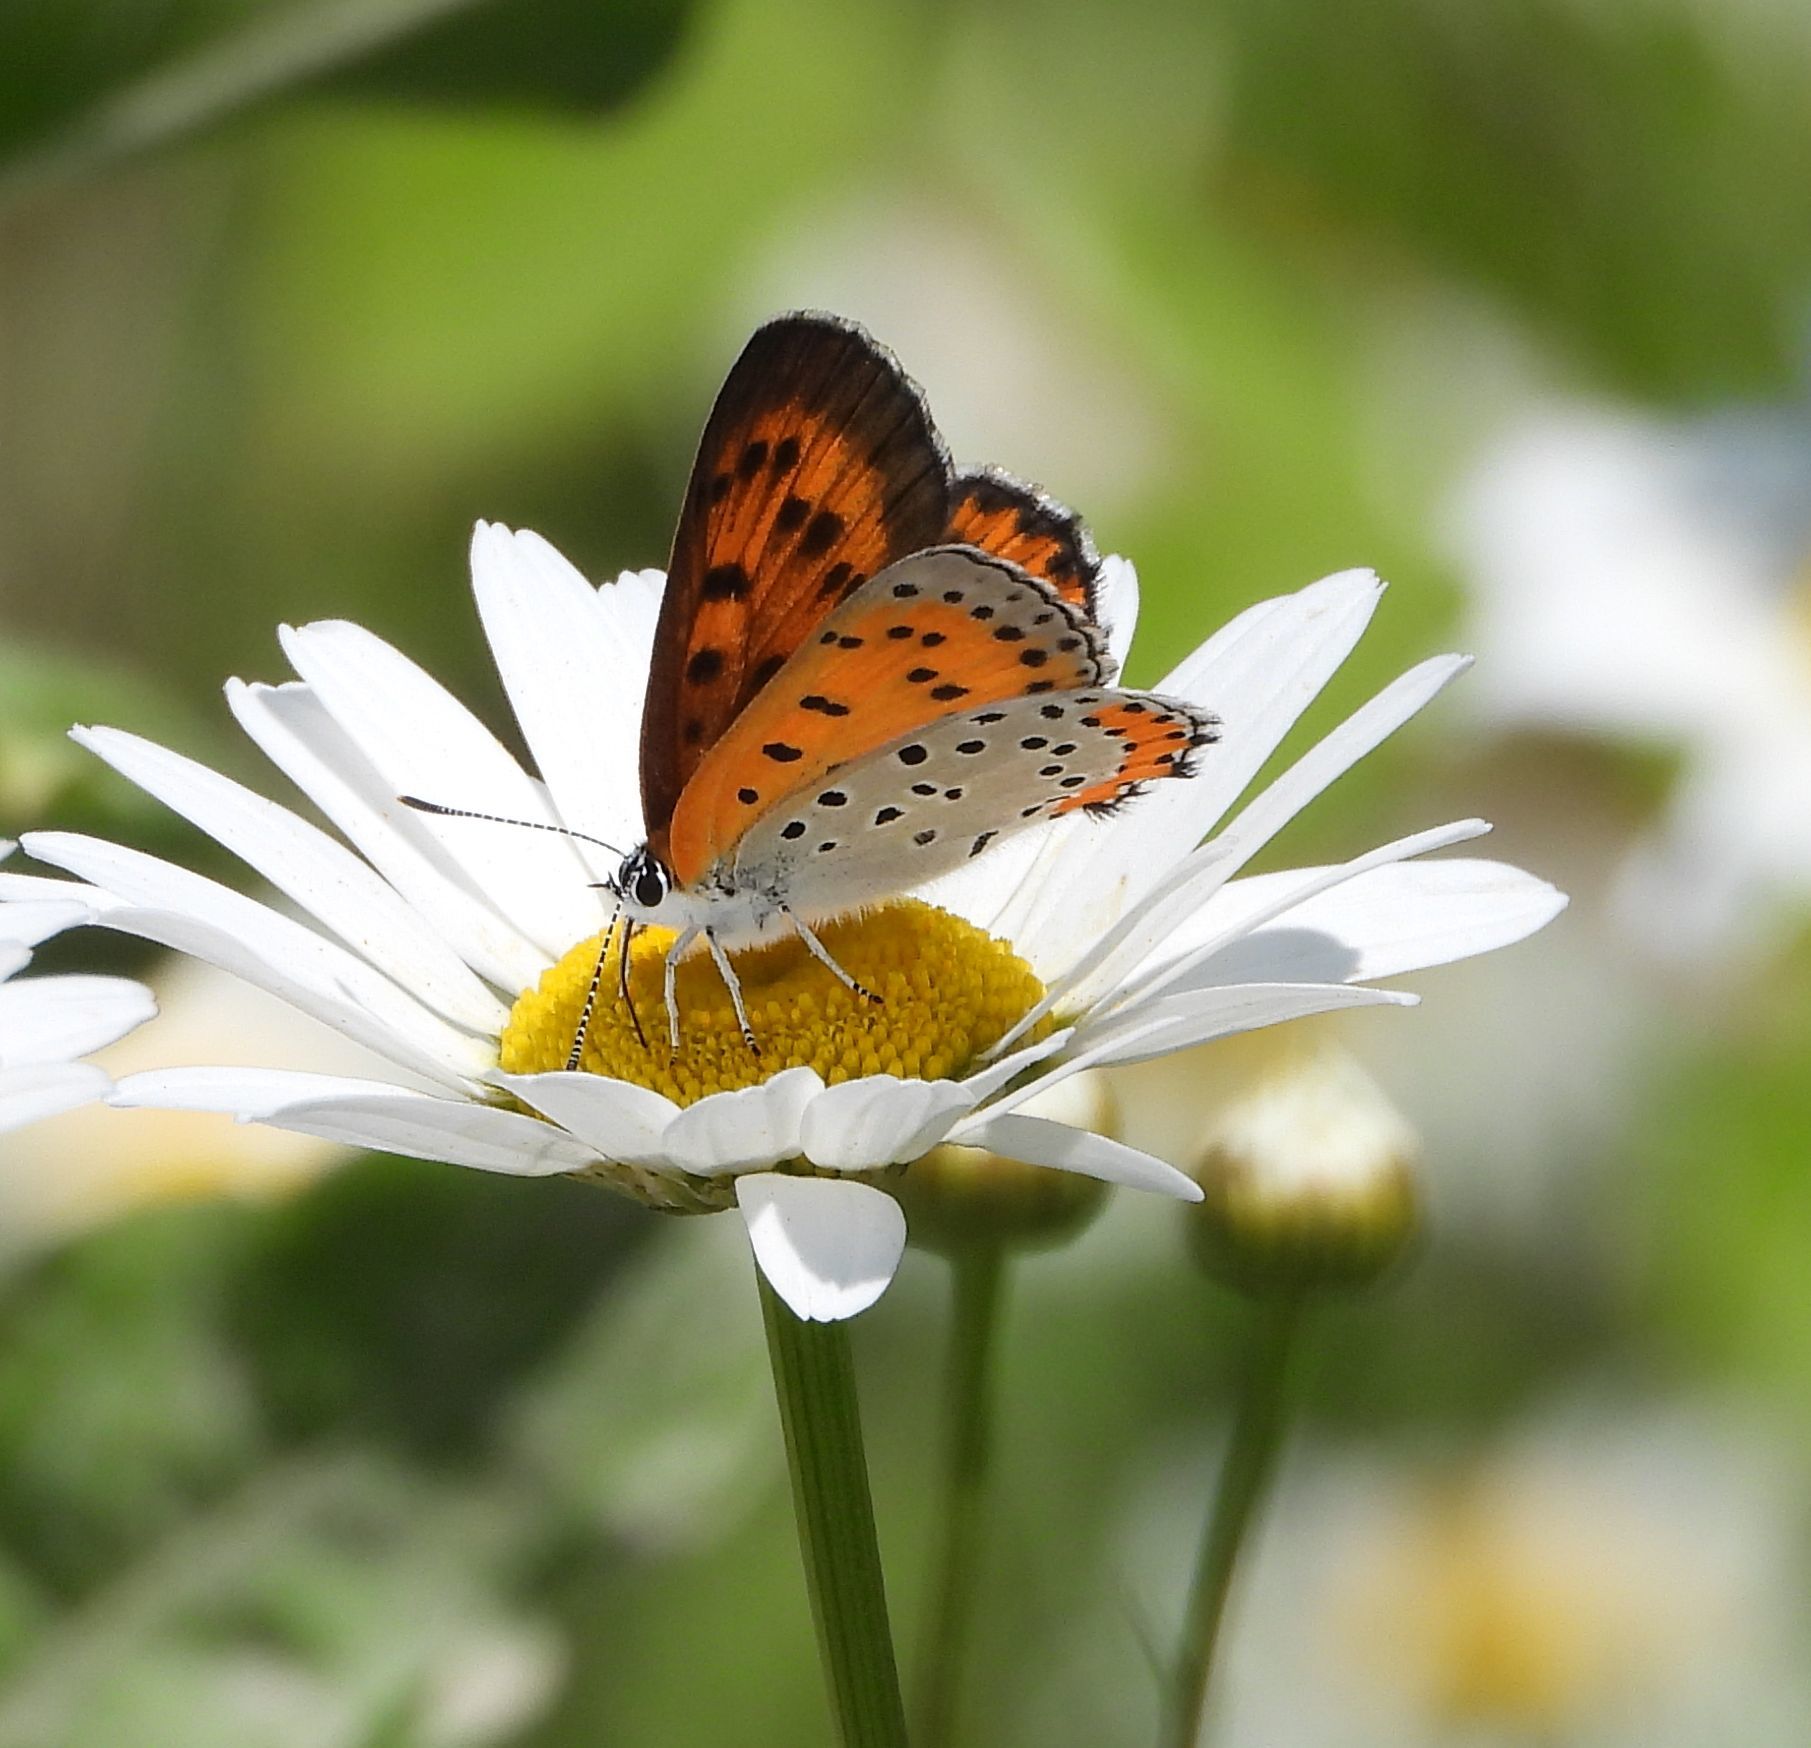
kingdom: Animalia
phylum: Arthropoda
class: Insecta
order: Lepidoptera
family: Lycaenidae
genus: Tharsalea
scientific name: Tharsalea hyllus
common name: Bronze copper
